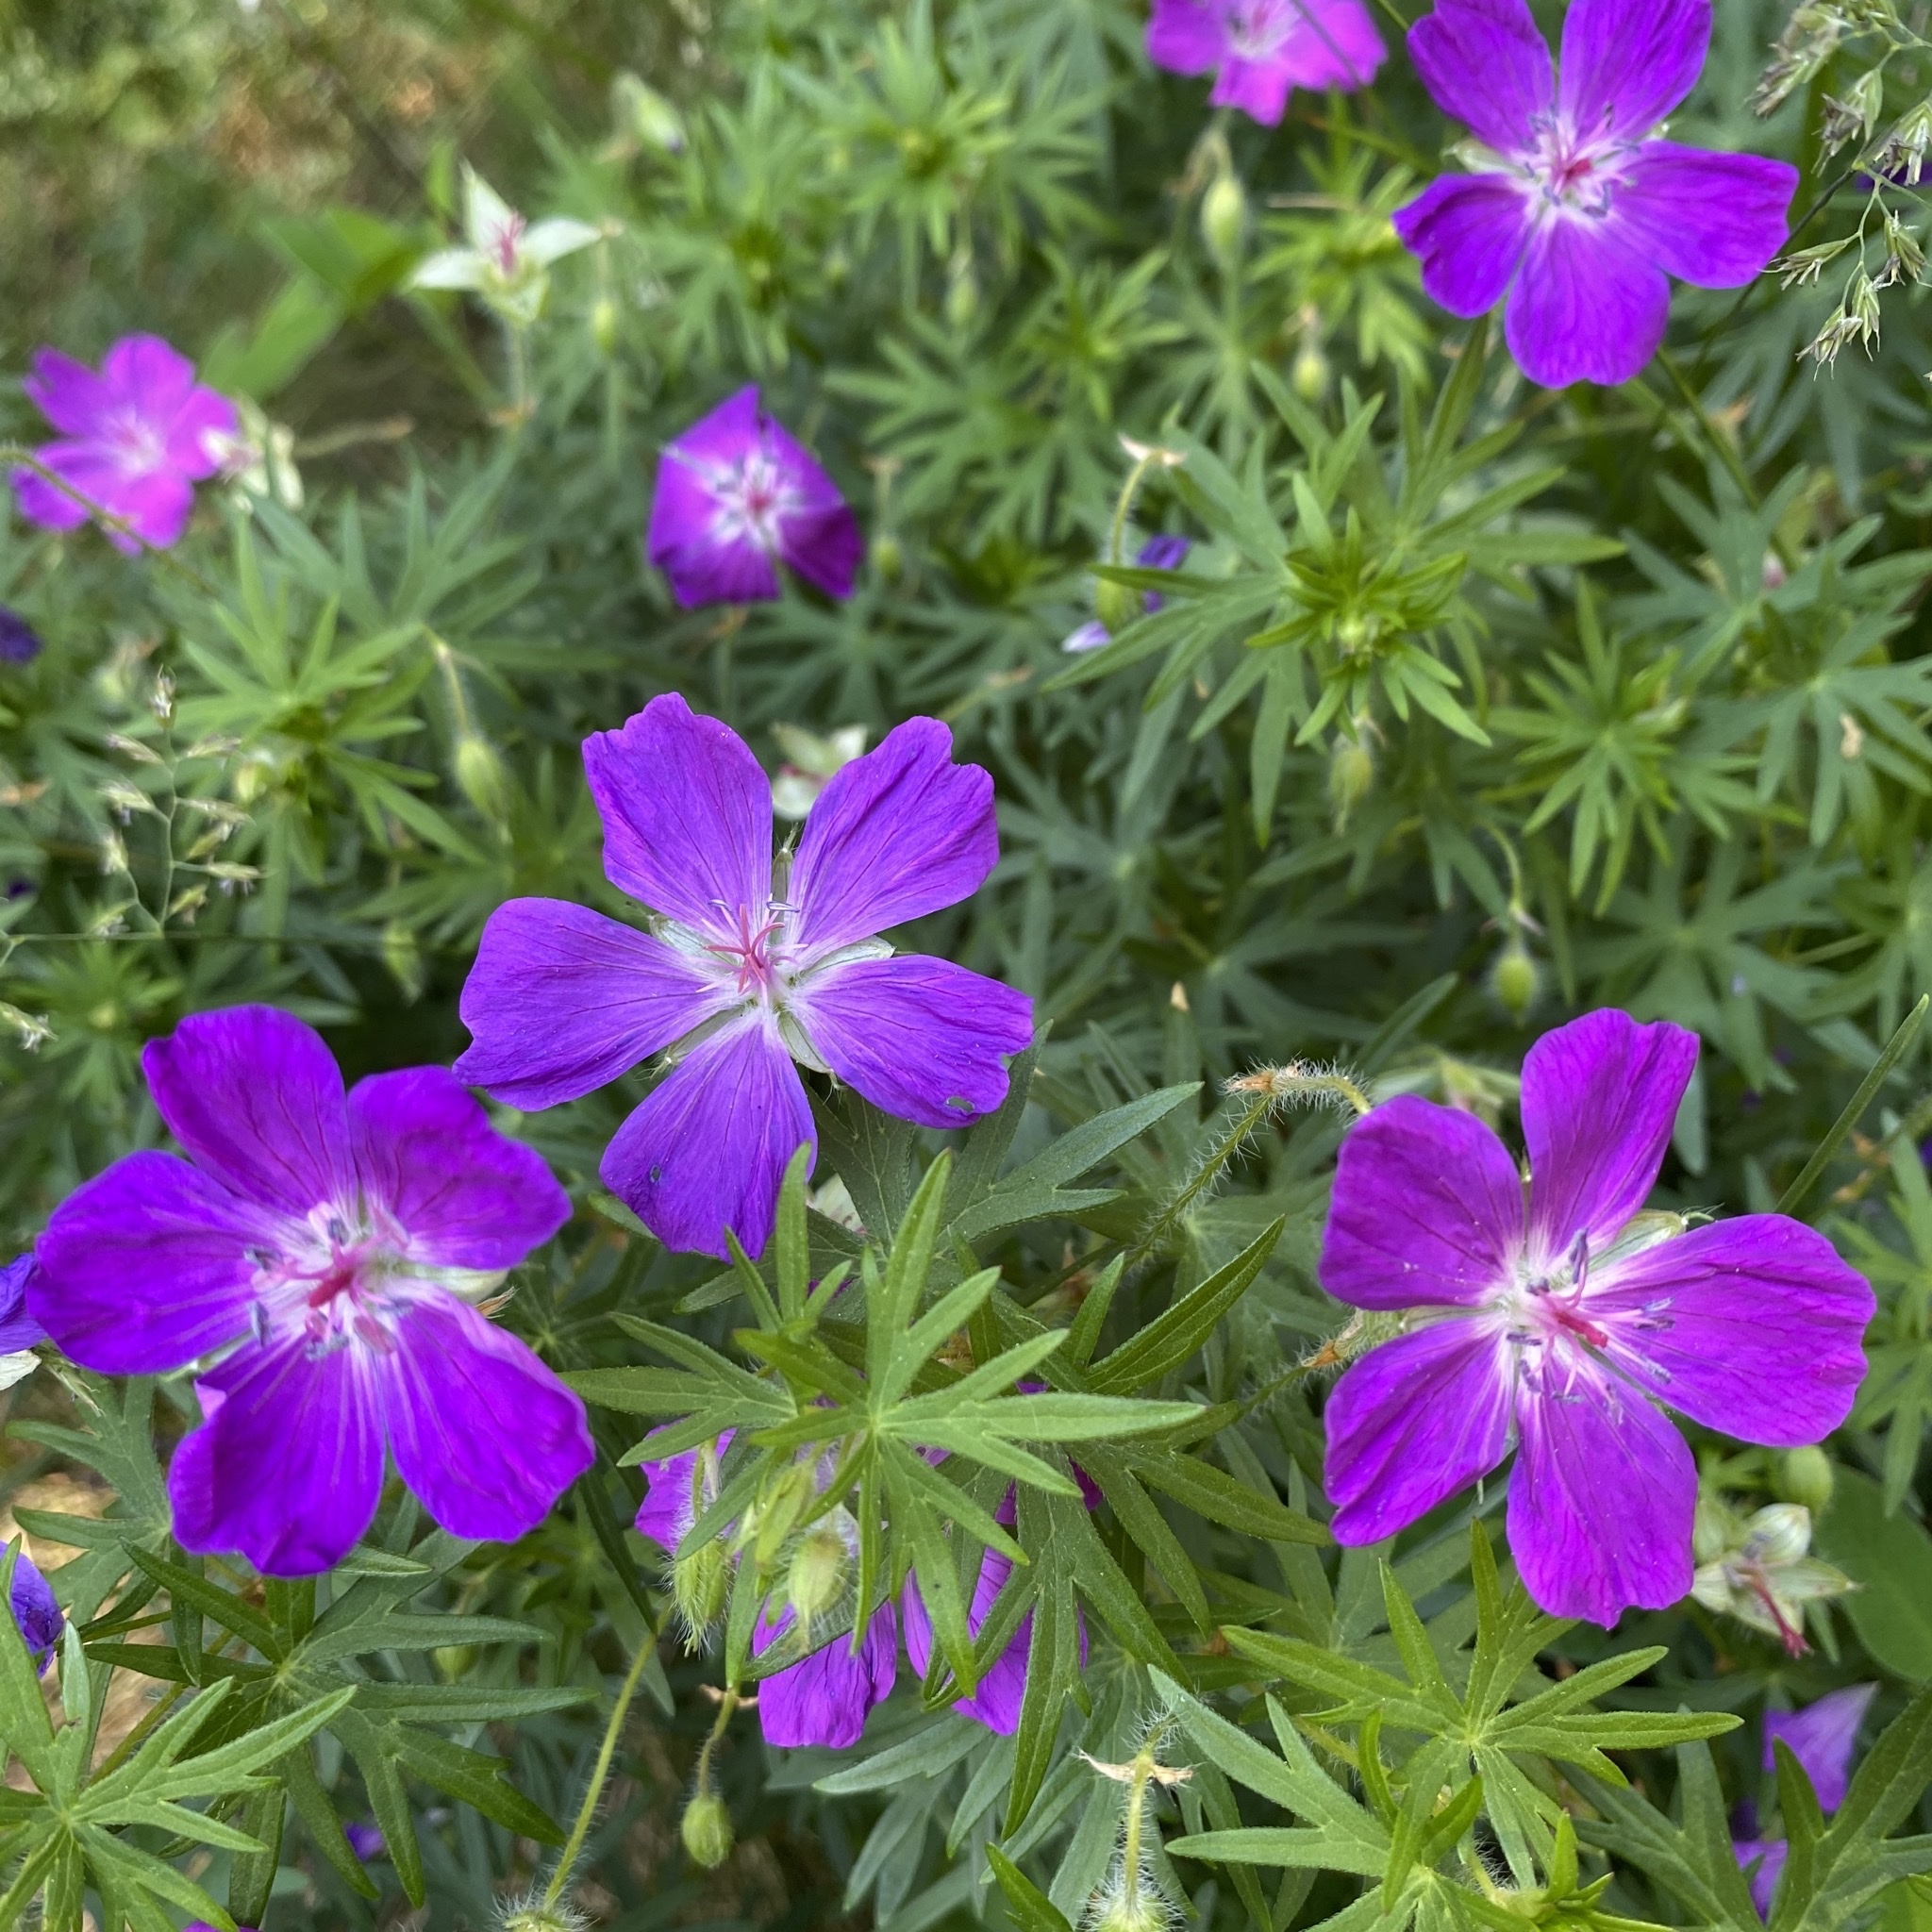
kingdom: Plantae
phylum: Tracheophyta
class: Magnoliopsida
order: Geraniales
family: Geraniaceae
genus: Geranium
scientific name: Geranium sanguineum
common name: Bloody crane's-bill
